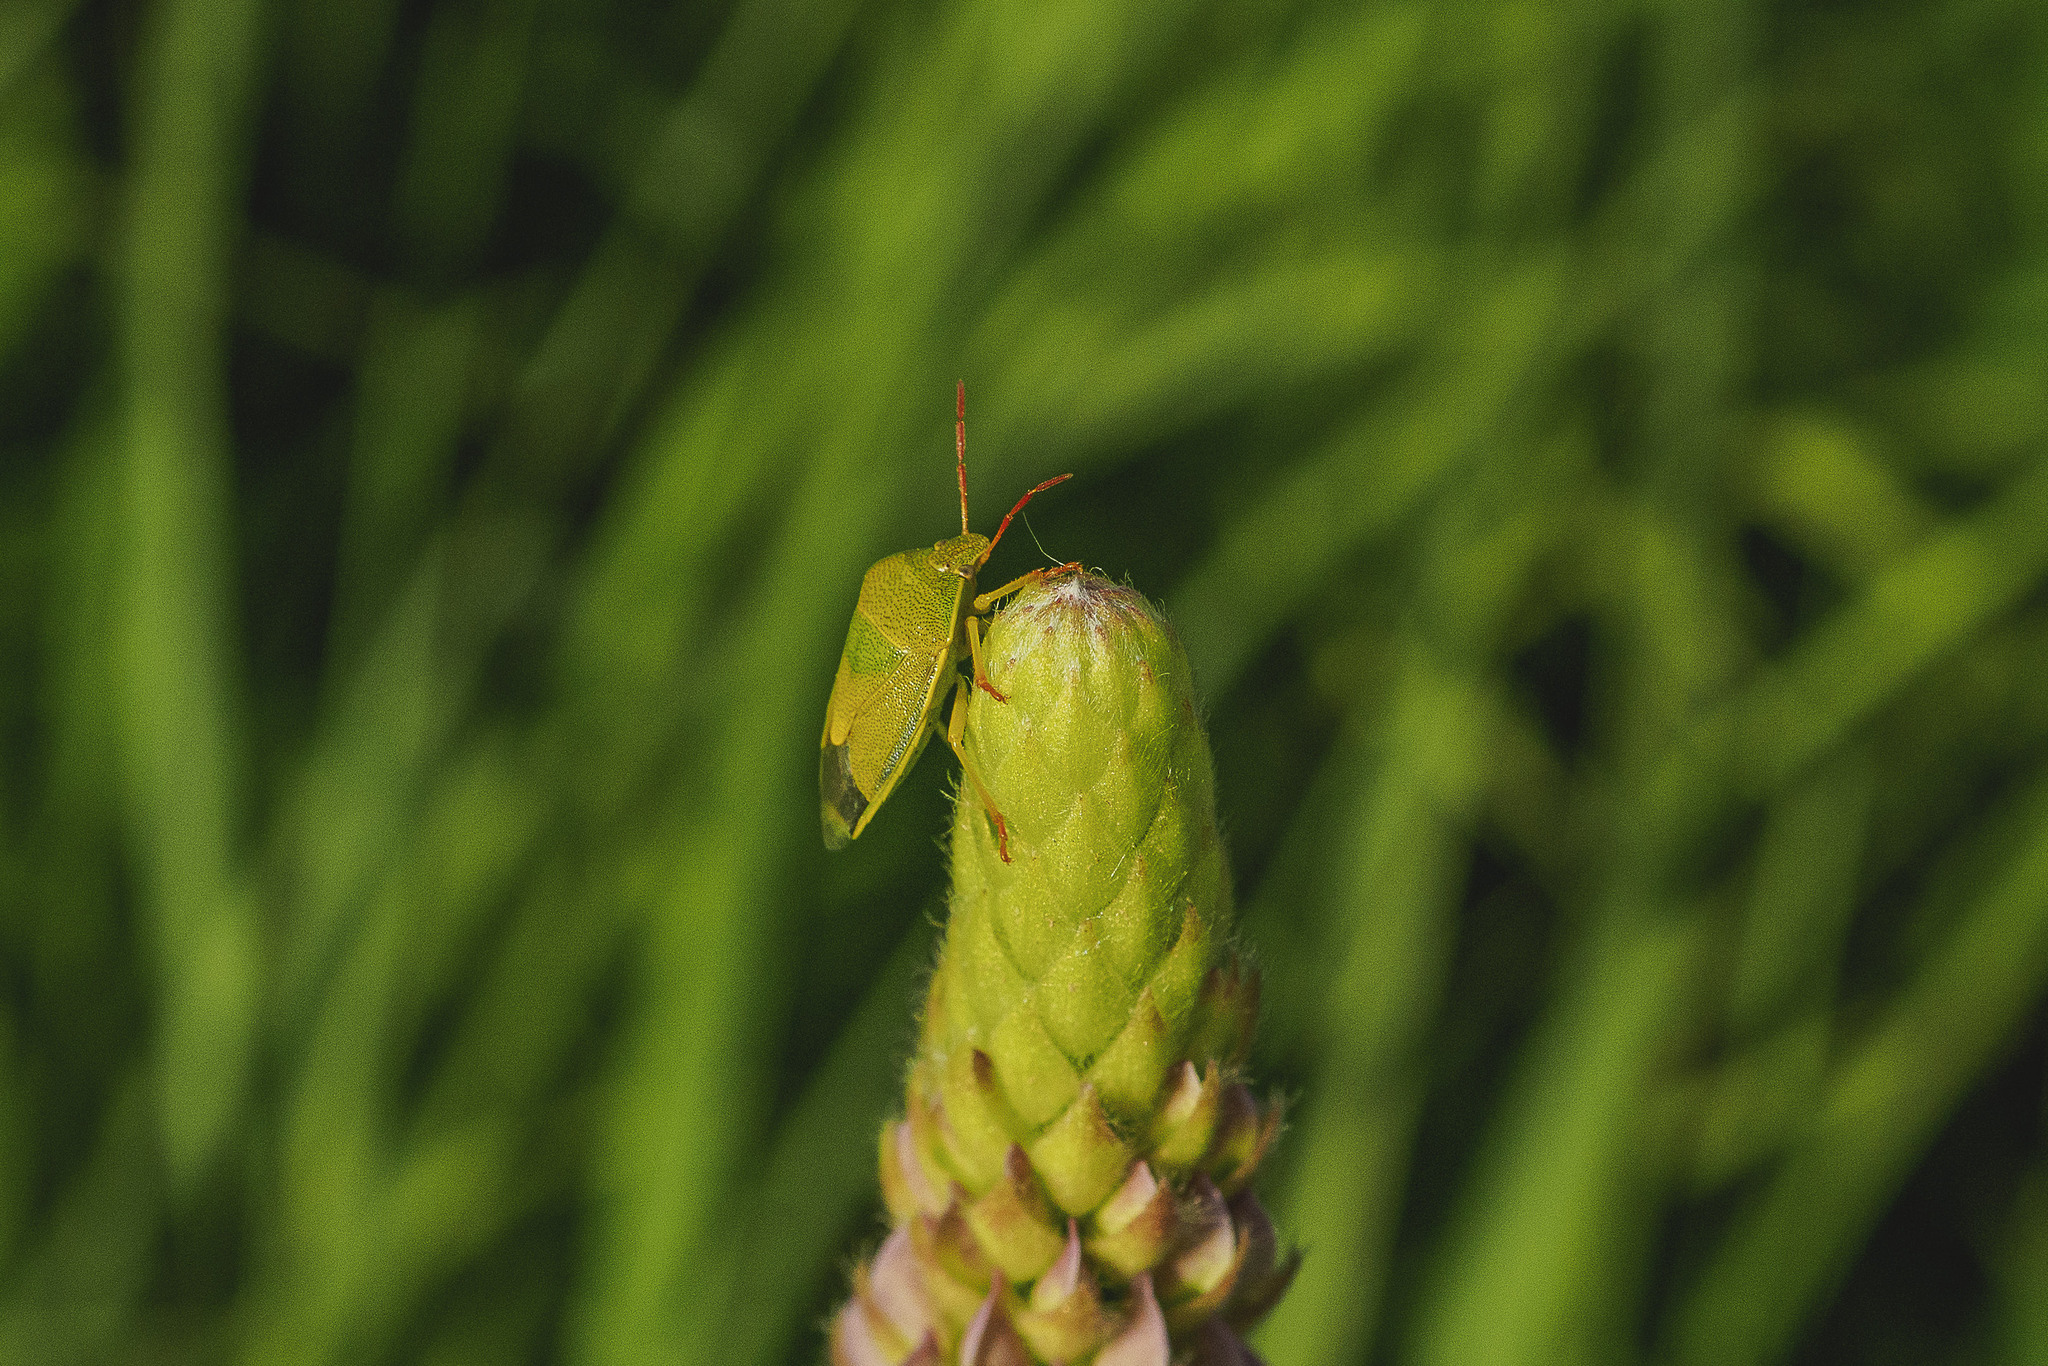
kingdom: Animalia
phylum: Arthropoda
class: Insecta
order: Hemiptera
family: Pentatomidae
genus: Piezodorus
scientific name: Piezodorus lituratus
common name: Stink bug
